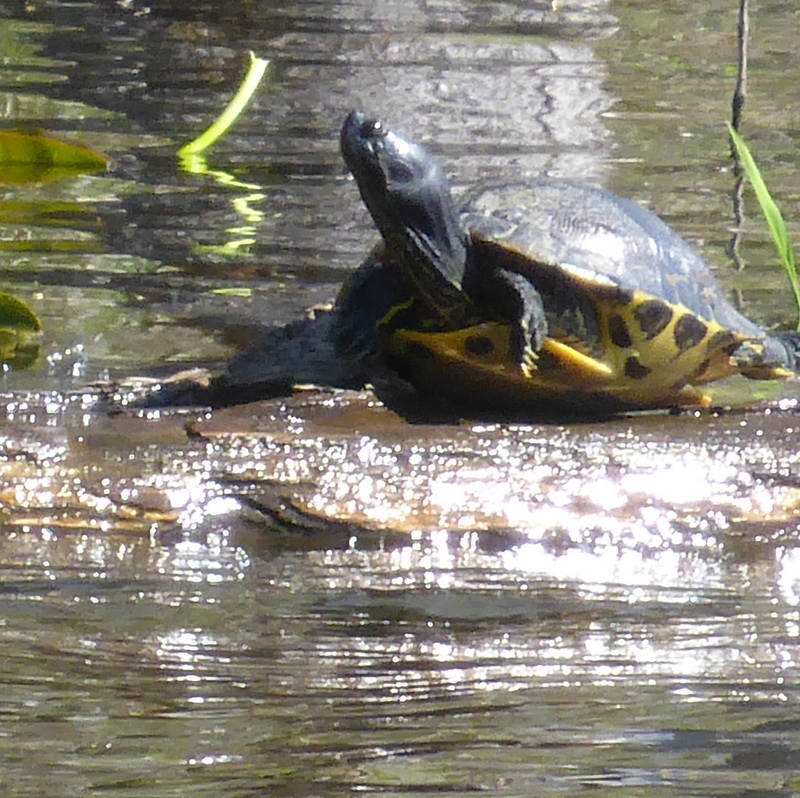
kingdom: Animalia
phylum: Chordata
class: Testudines
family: Emydidae
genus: Trachemys
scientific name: Trachemys scripta
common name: Slider
